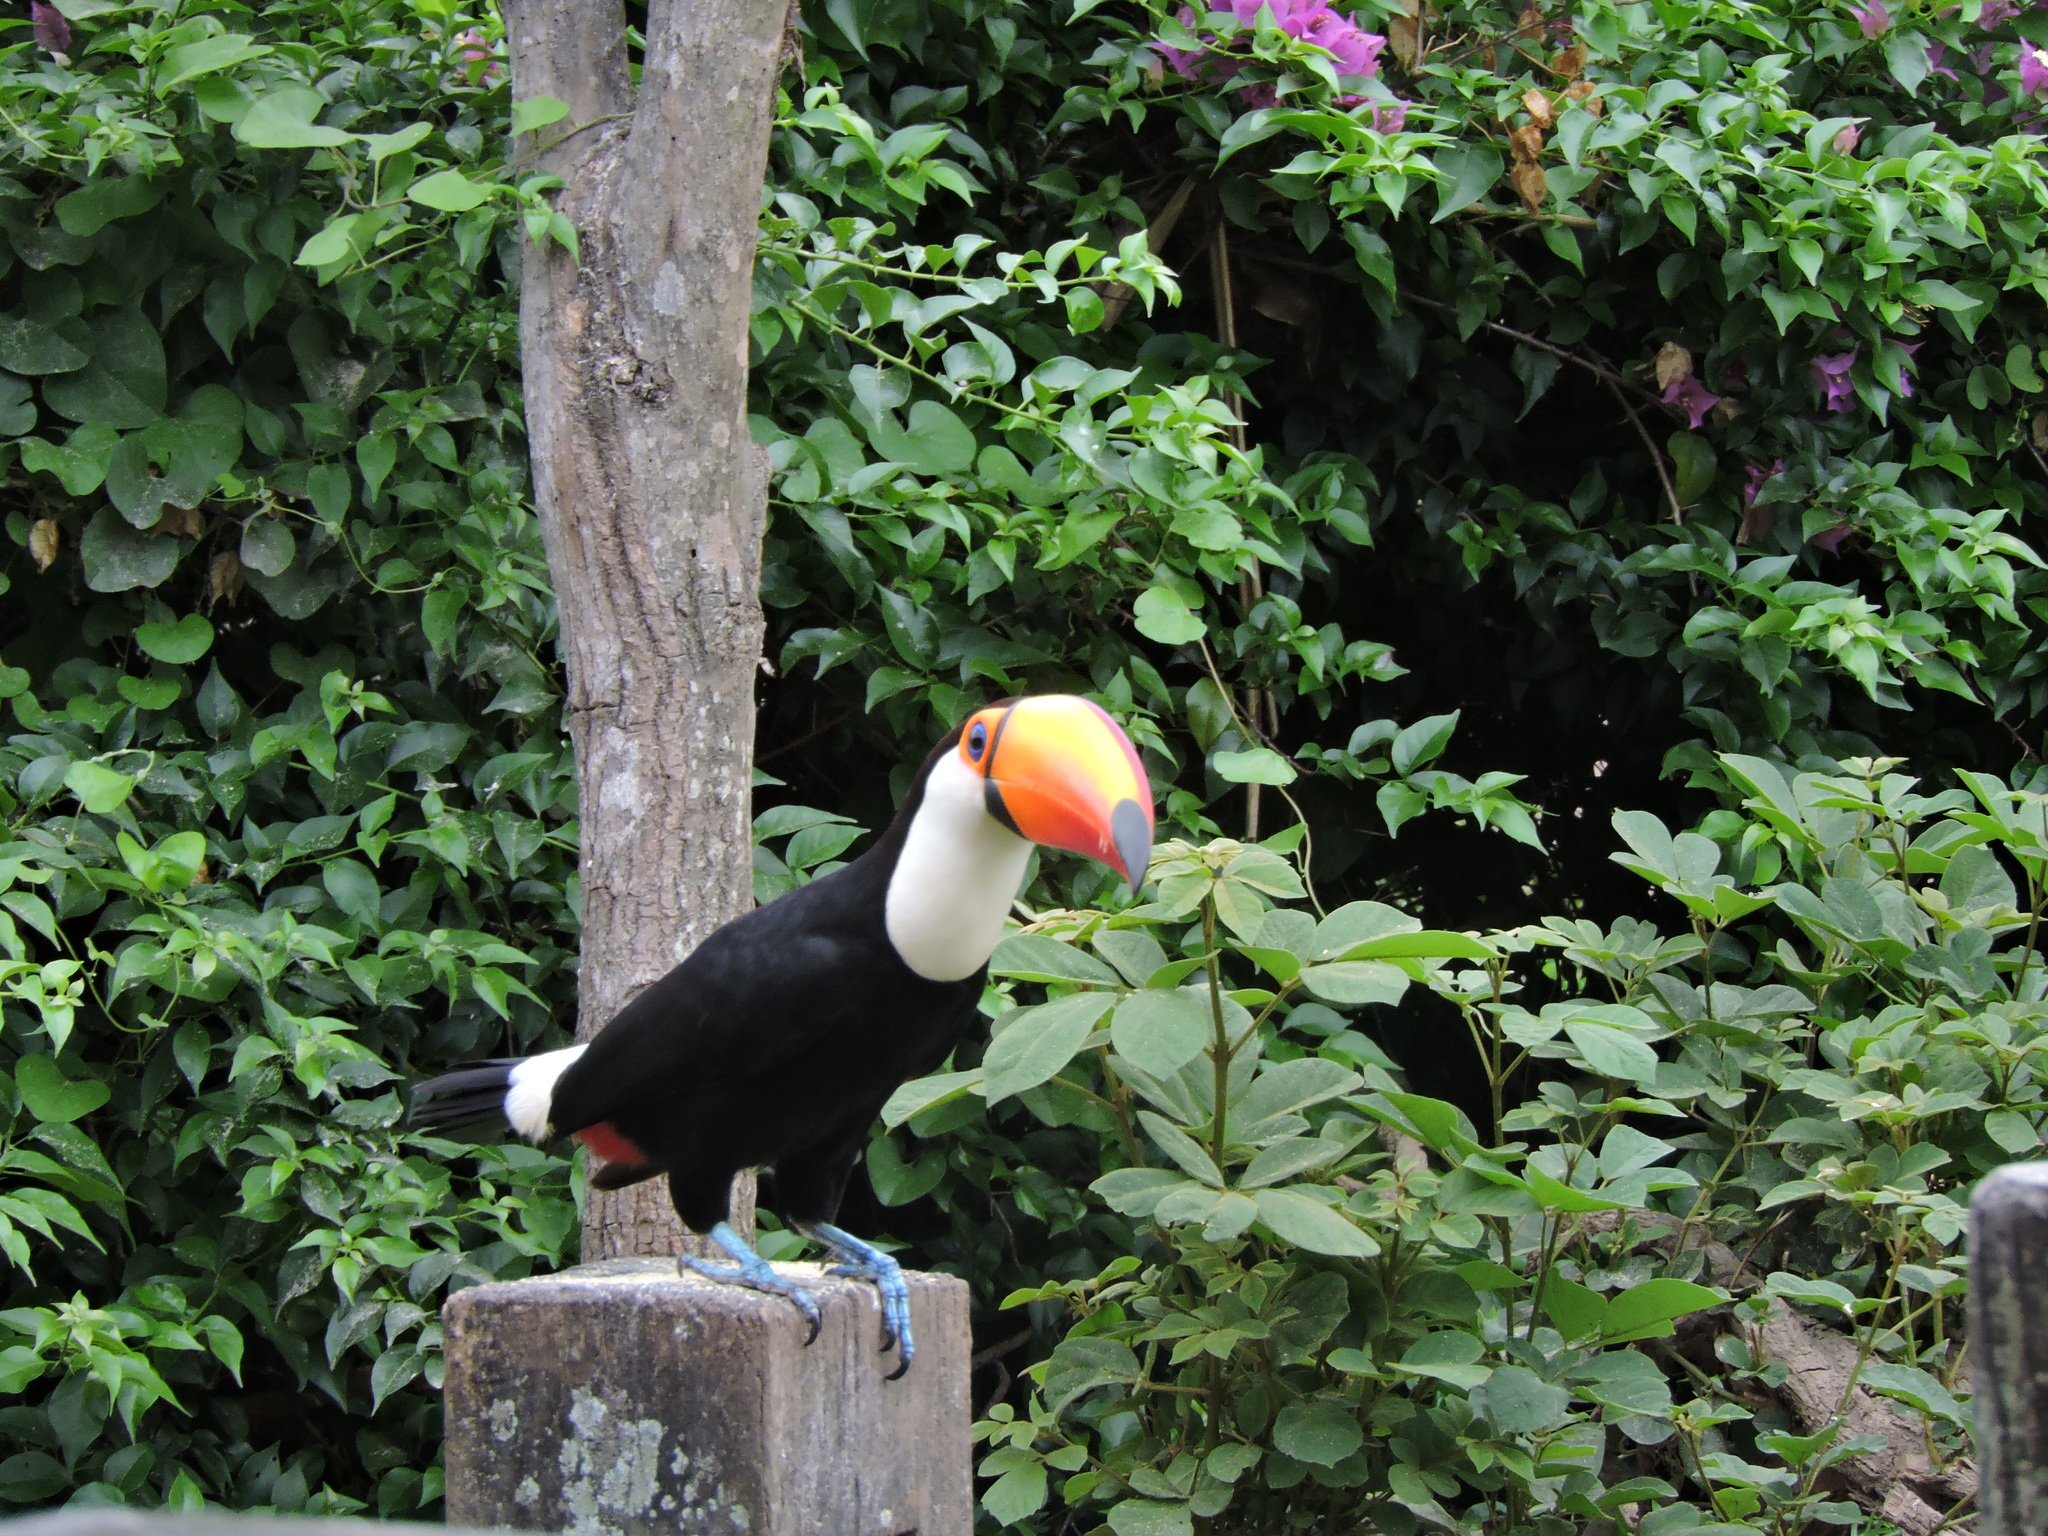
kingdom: Animalia
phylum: Chordata
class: Aves
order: Piciformes
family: Ramphastidae
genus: Ramphastos
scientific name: Ramphastos toco
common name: Toco toucan
